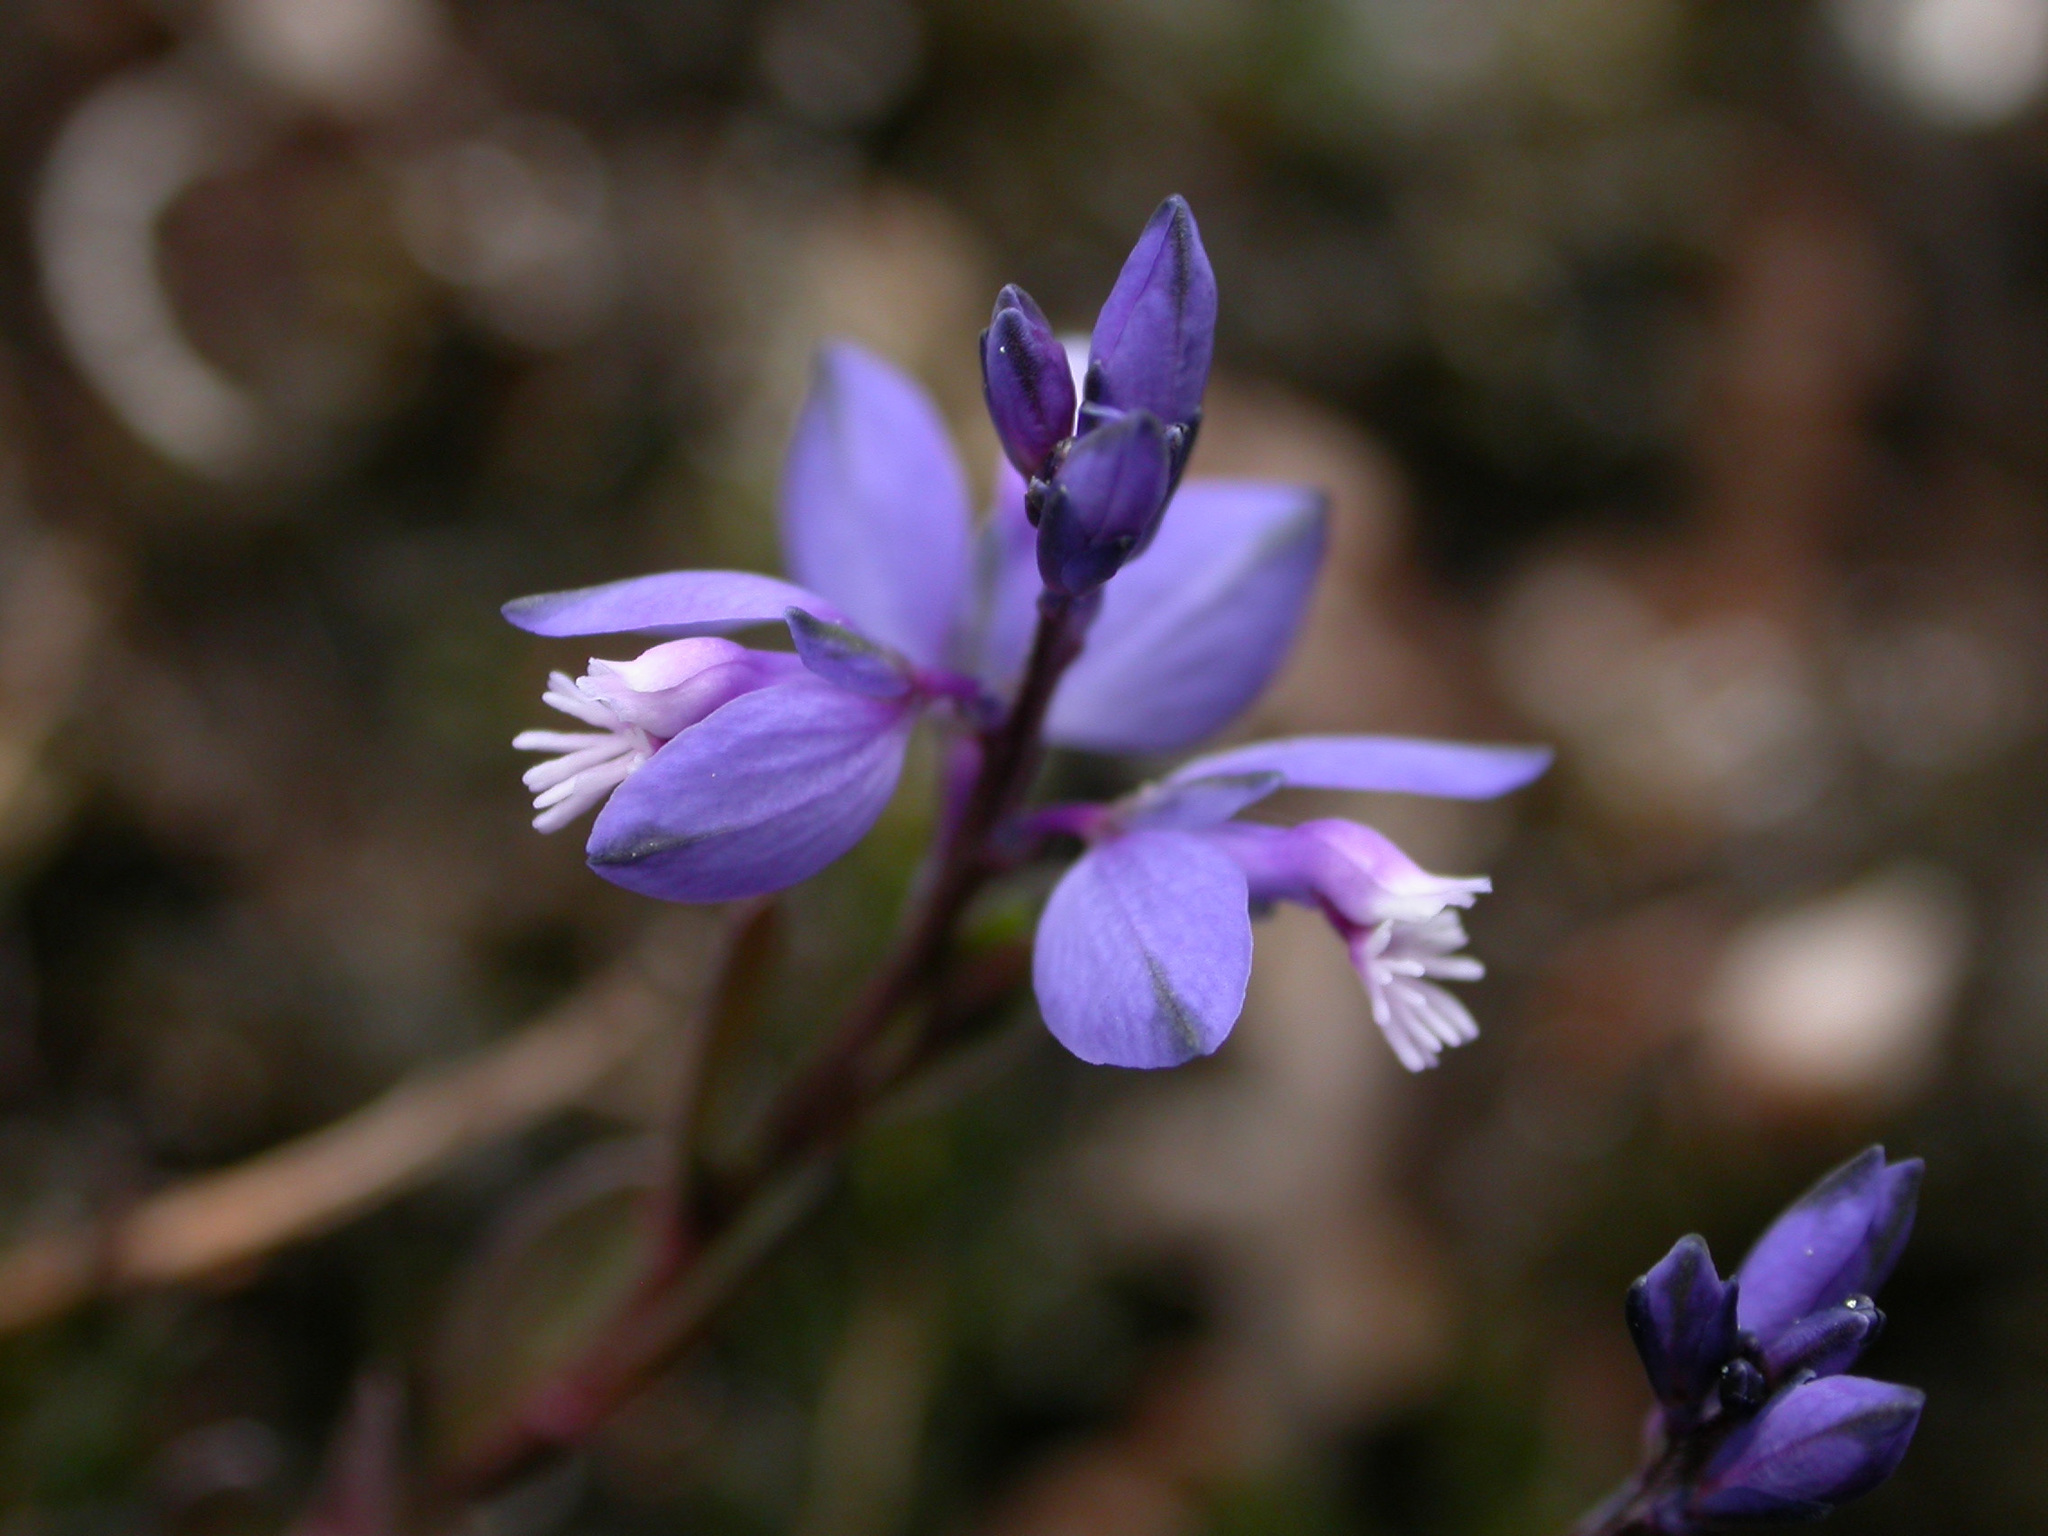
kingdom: Plantae
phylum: Tracheophyta
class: Magnoliopsida
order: Fabales
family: Polygalaceae
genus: Polygala
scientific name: Polygala serpyllifolia
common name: Heath milkwort
